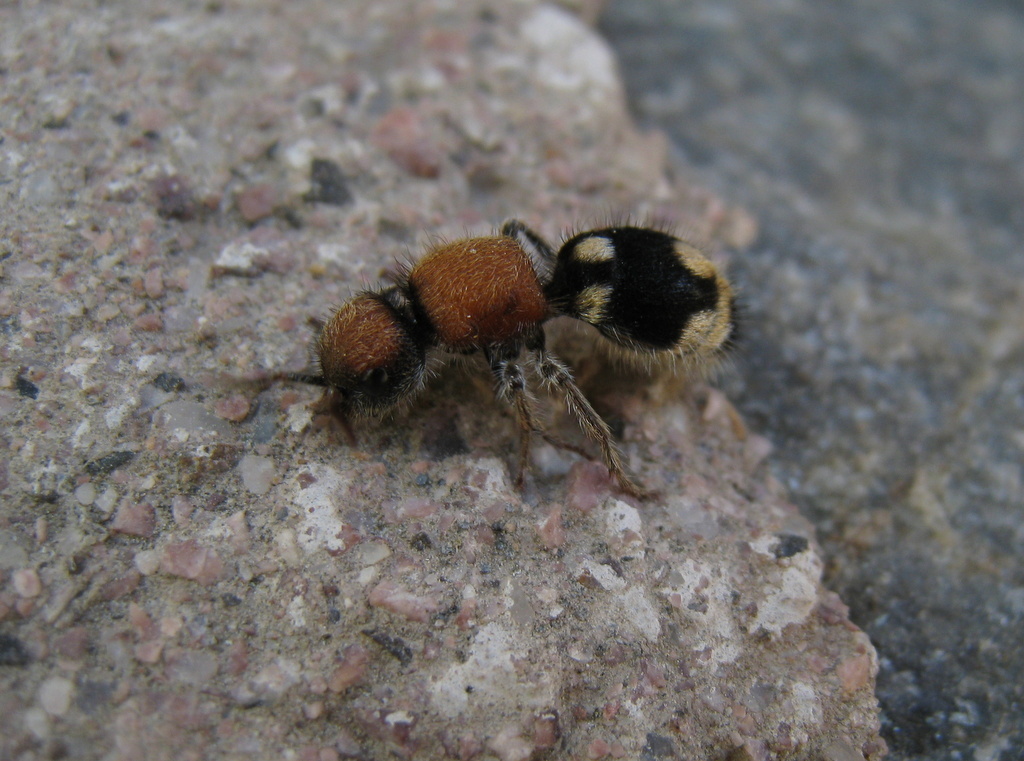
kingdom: Animalia
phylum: Arthropoda
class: Insecta
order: Hymenoptera
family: Mutillidae
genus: Ronisia
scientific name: Ronisia brutia
